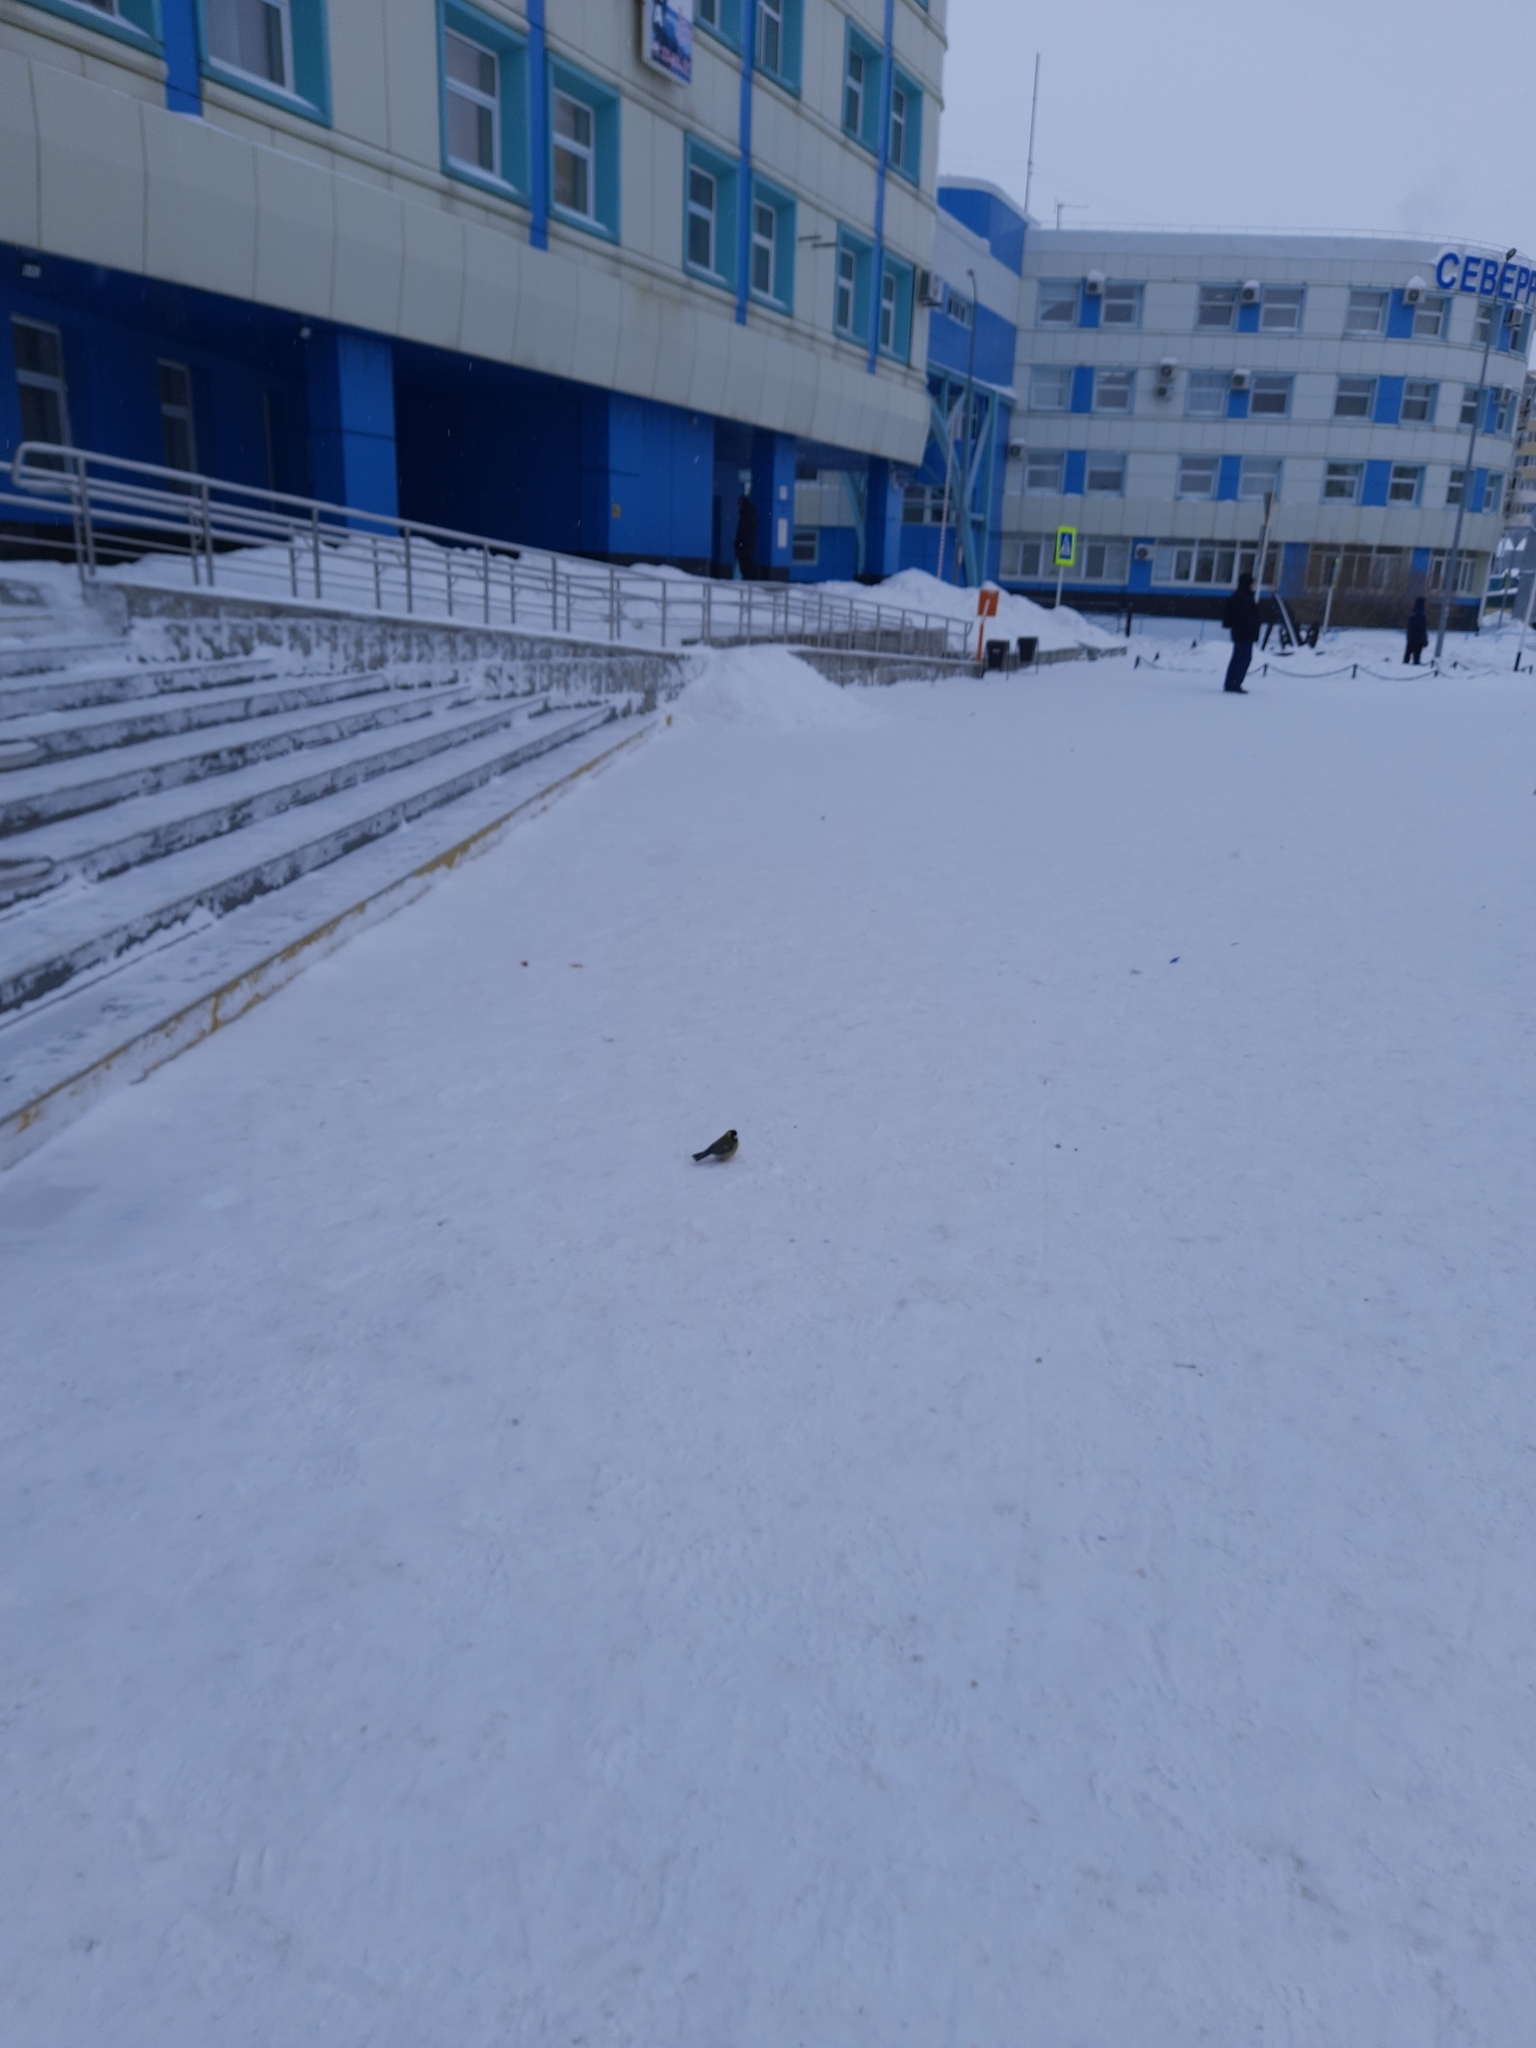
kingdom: Animalia
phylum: Chordata
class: Aves
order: Passeriformes
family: Paridae
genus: Parus
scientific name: Parus major
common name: Great tit
